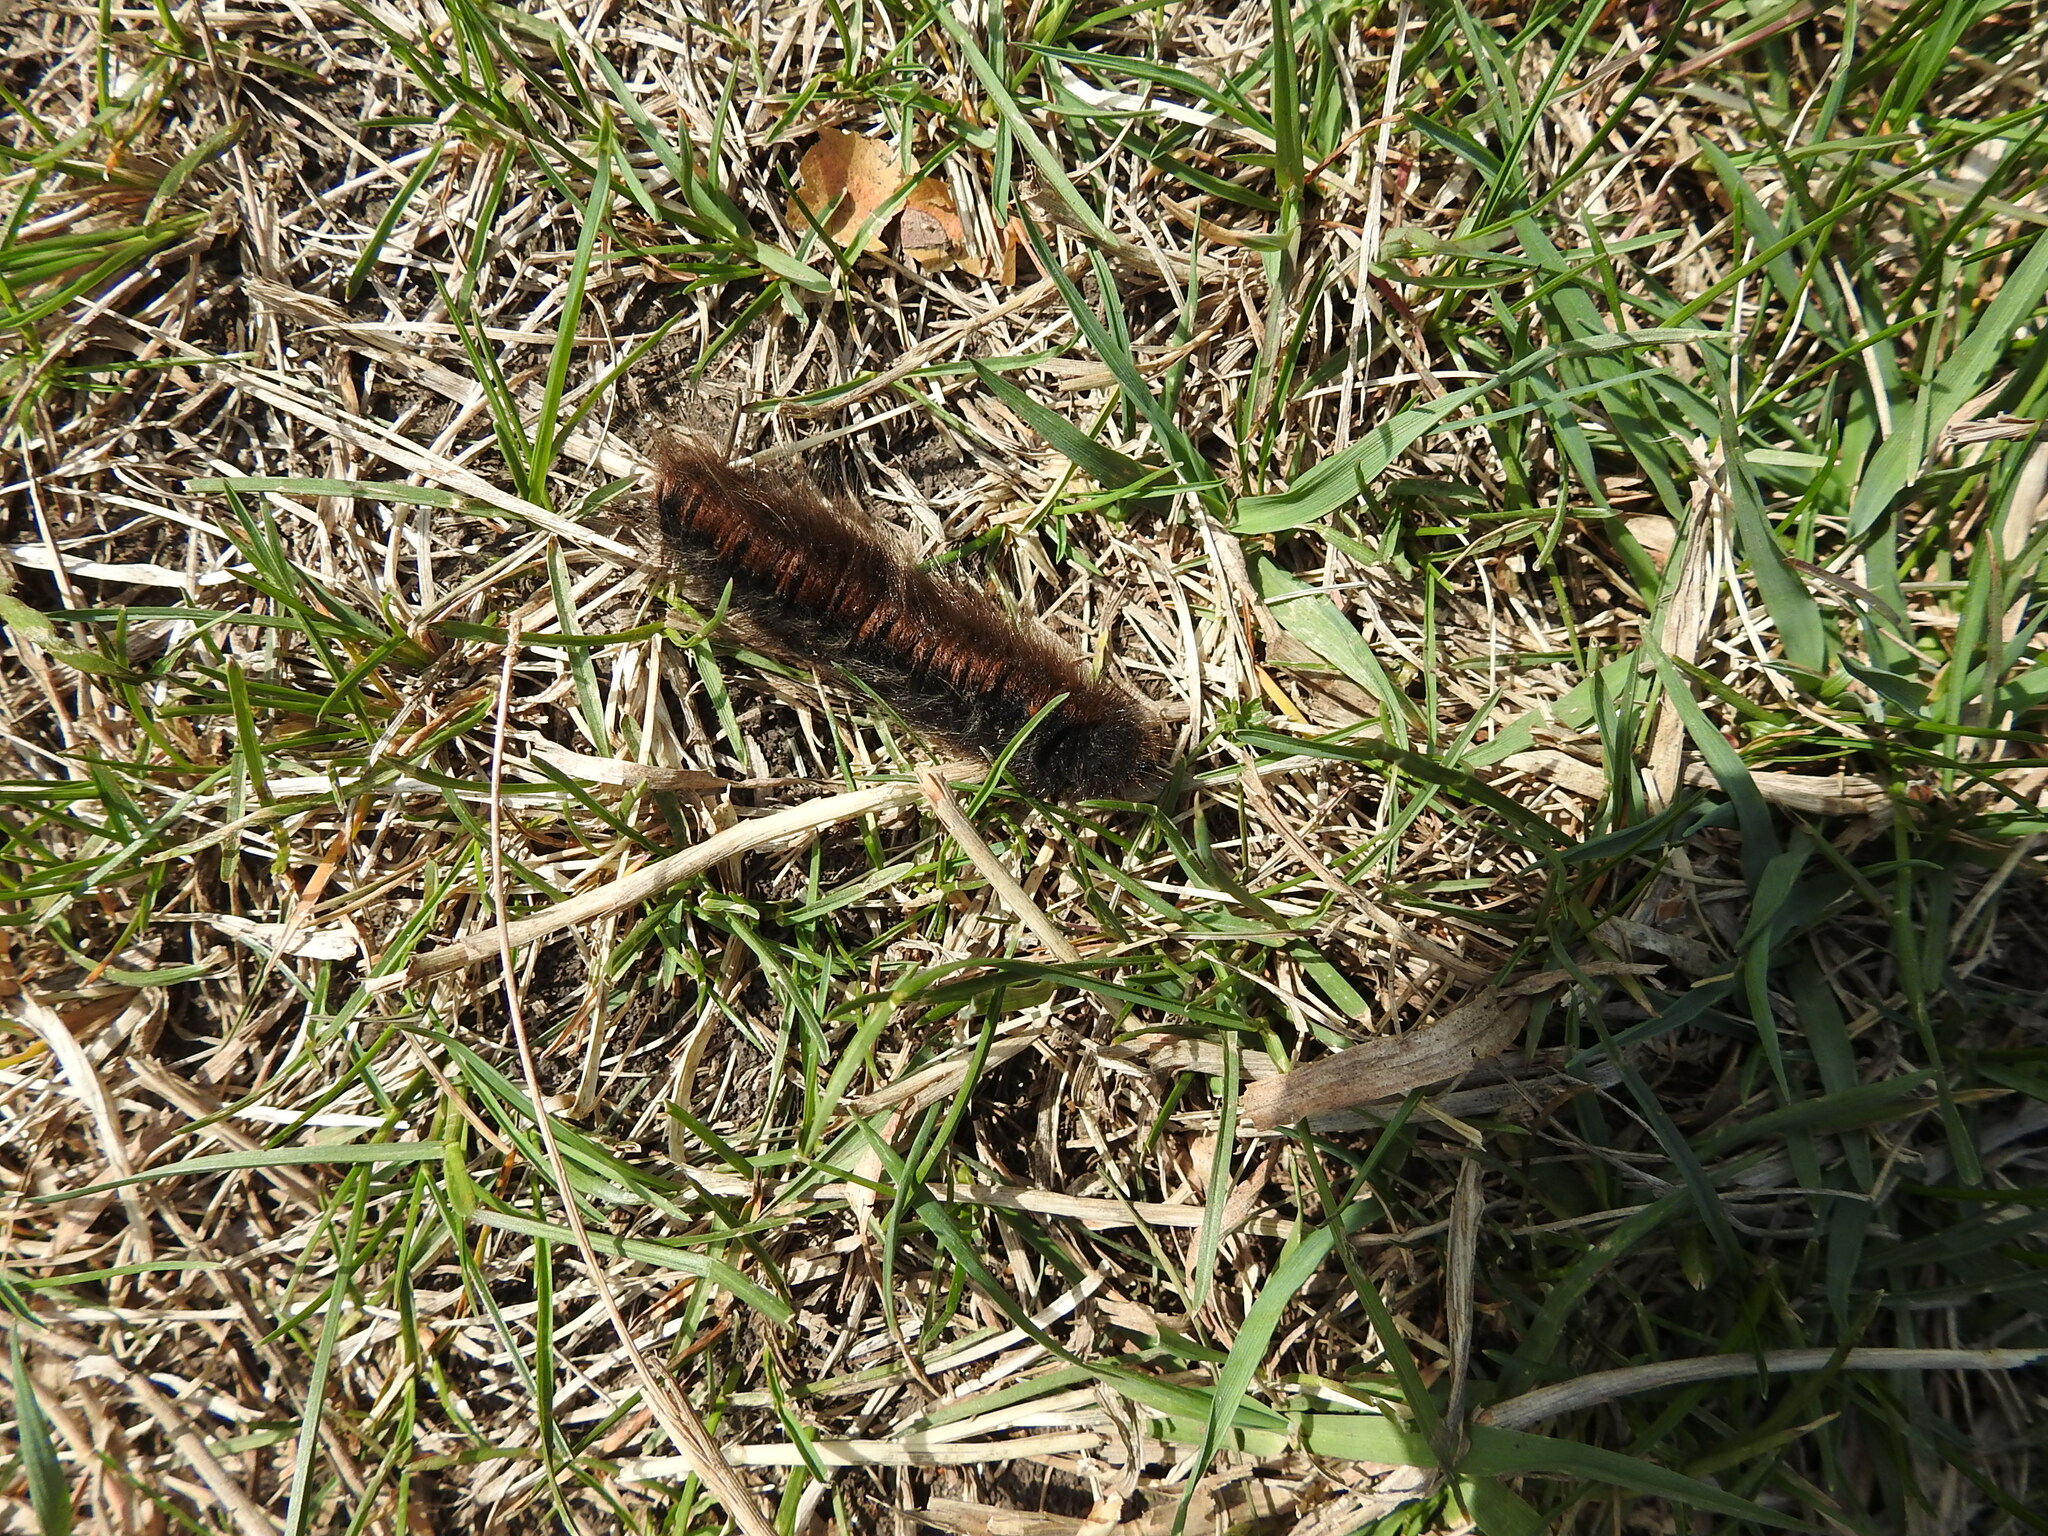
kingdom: Animalia
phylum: Arthropoda
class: Insecta
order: Lepidoptera
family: Lasiocampidae
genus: Macrothylacia
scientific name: Macrothylacia rubi
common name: Fox moth
